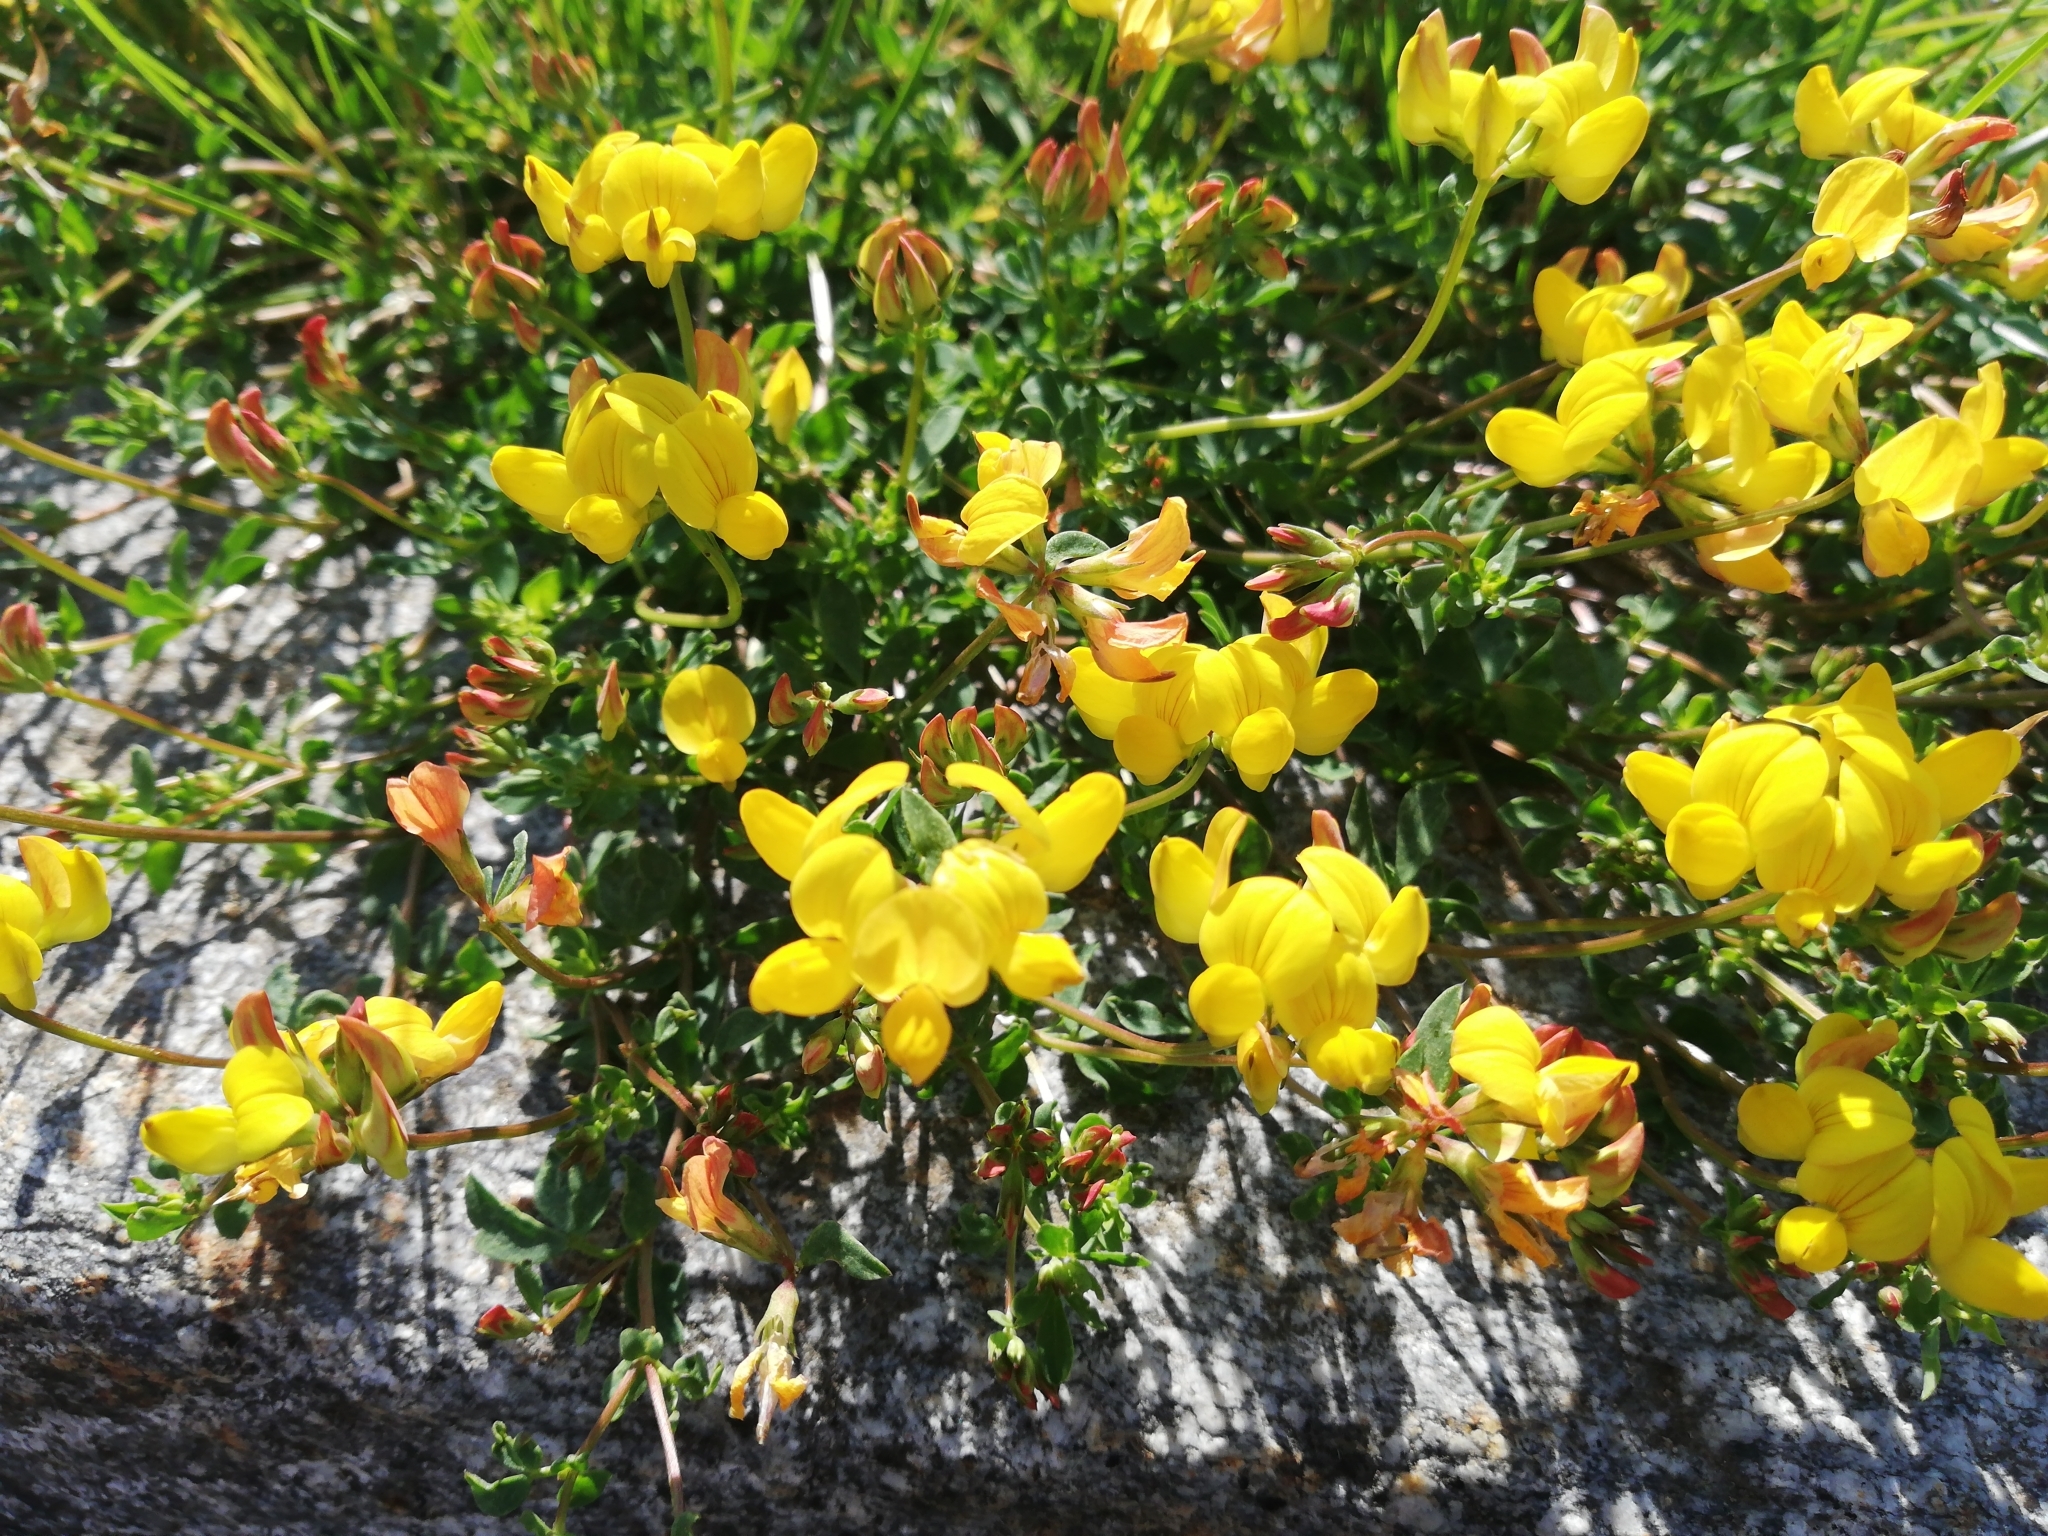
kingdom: Plantae
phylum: Tracheophyta
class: Magnoliopsida
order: Fabales
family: Fabaceae
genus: Lotus
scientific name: Lotus corniculatus
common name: Common bird's-foot-trefoil
